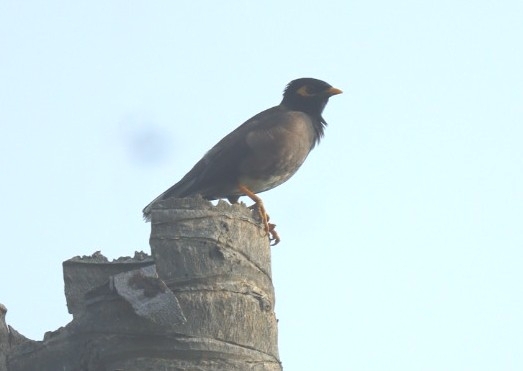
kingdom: Animalia
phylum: Chordata
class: Aves
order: Passeriformes
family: Sturnidae
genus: Acridotheres
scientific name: Acridotheres tristis
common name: Common myna
